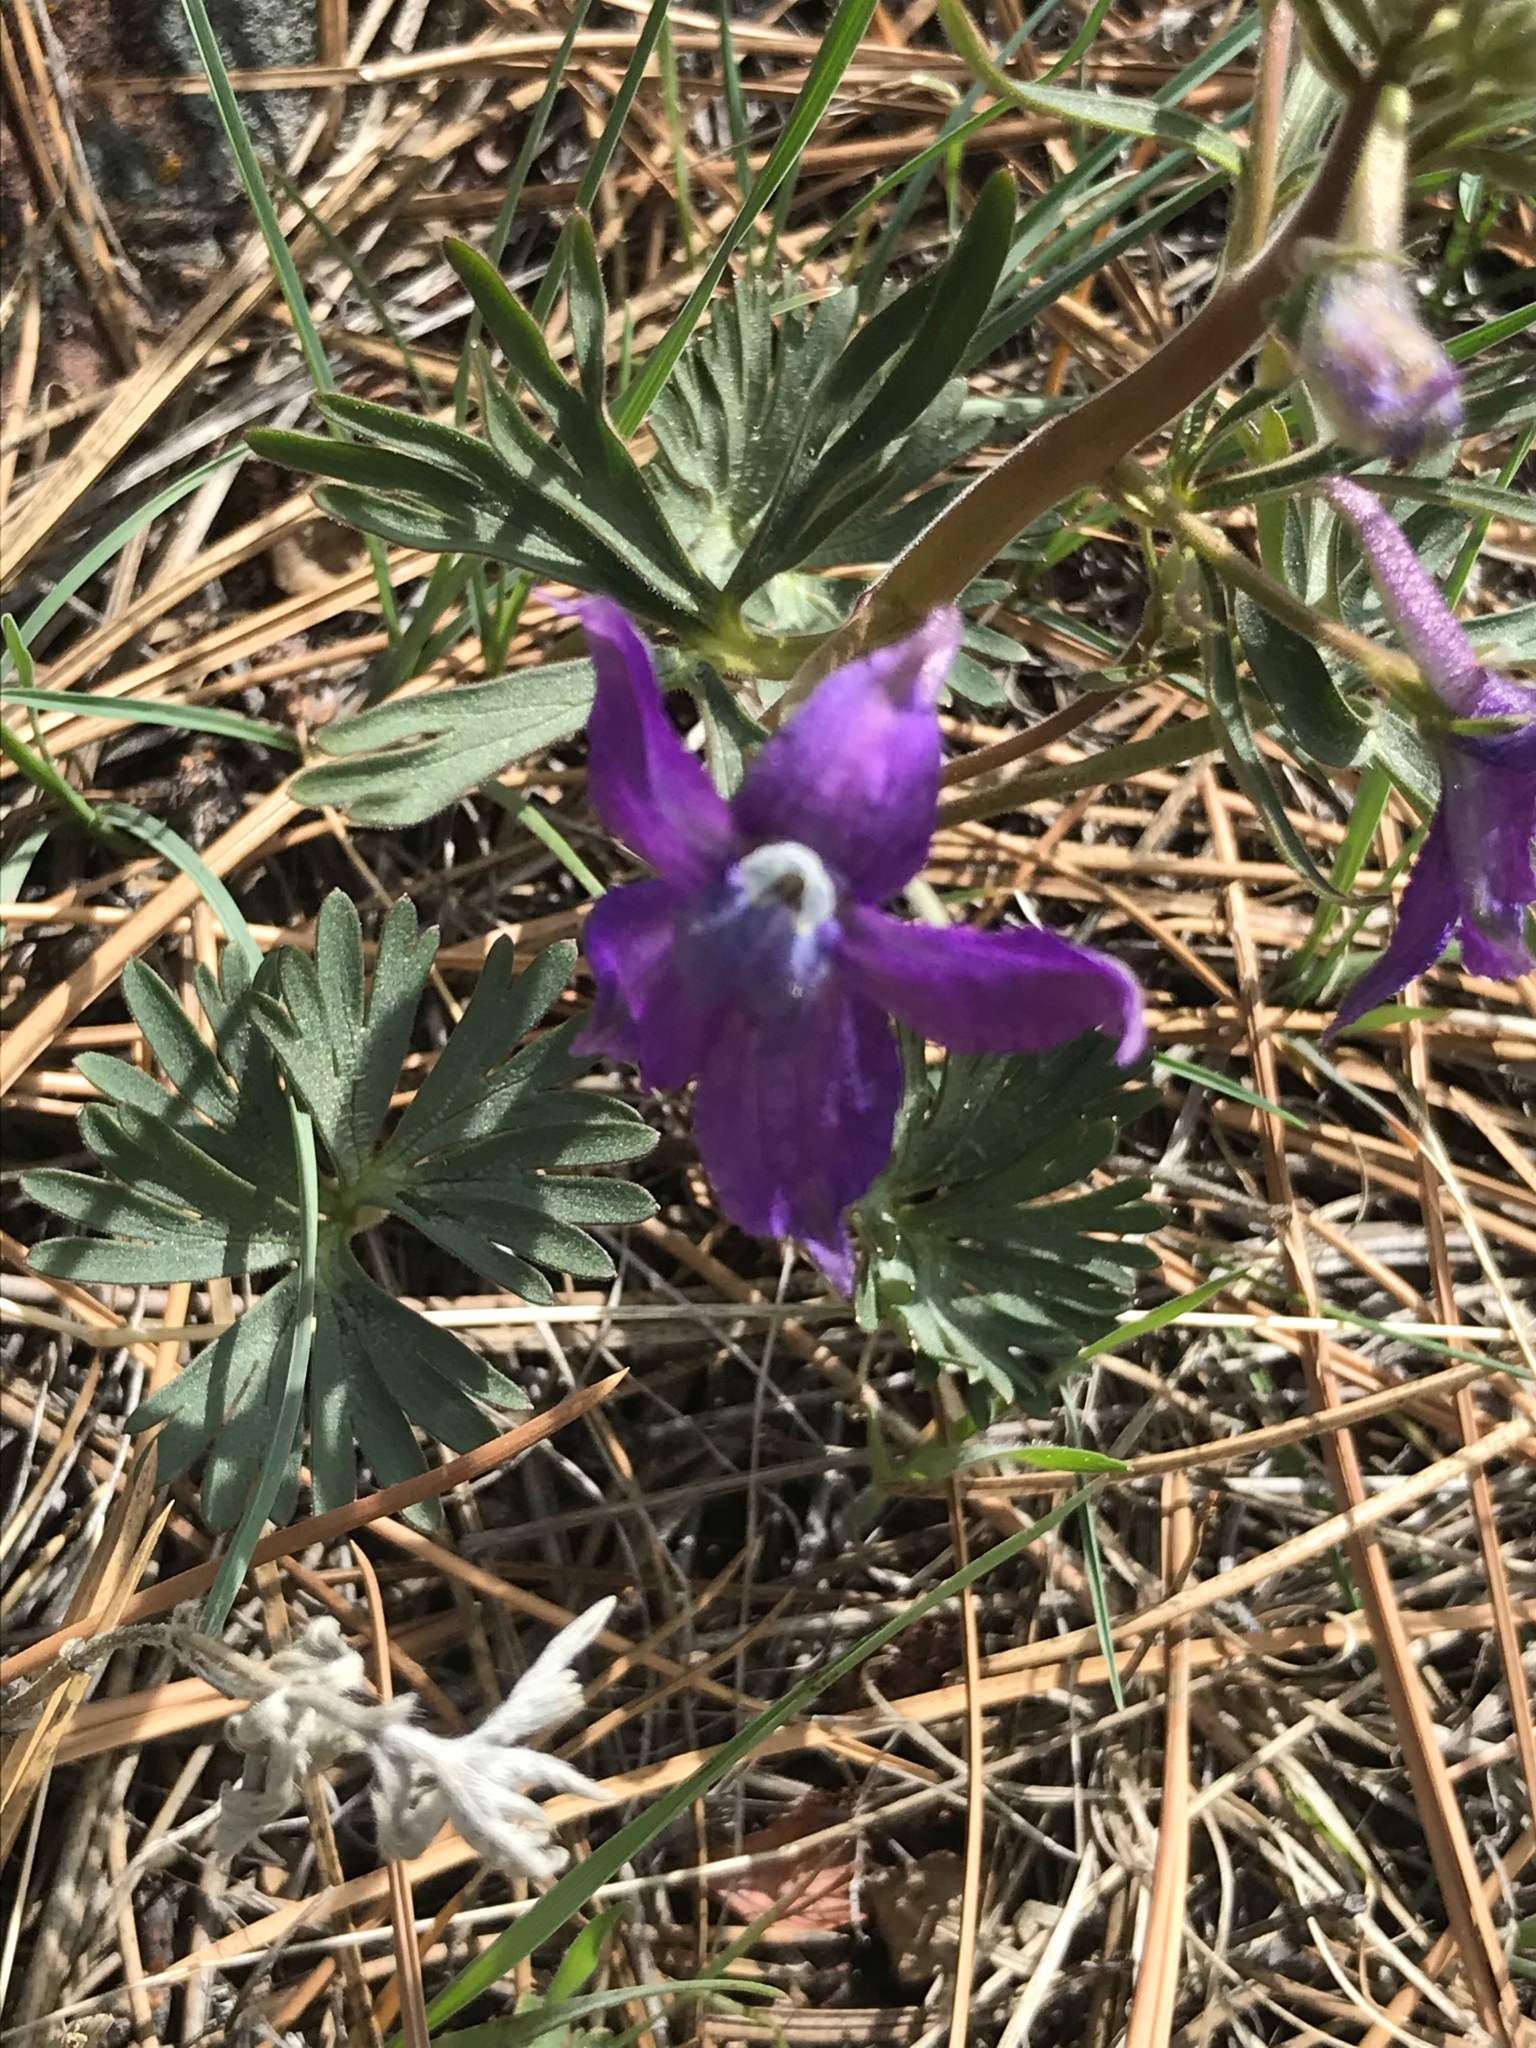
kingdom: Plantae
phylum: Tracheophyta
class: Magnoliopsida
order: Ranunculales
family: Ranunculaceae
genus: Delphinium
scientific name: Delphinium bicolor
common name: Low larkspur
